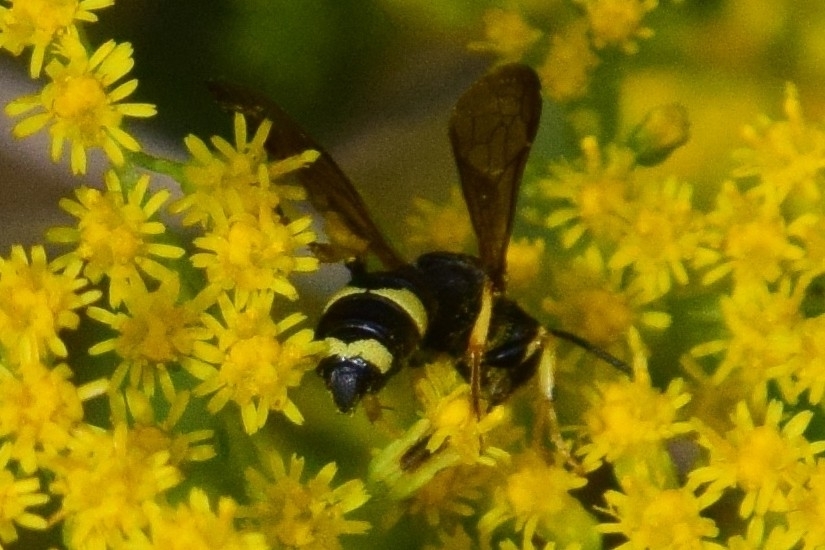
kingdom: Animalia
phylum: Arthropoda
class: Insecta
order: Hymenoptera
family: Crabronidae
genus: Cerceris
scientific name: Cerceris rybyensis
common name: Ornate tailed digger wasp
